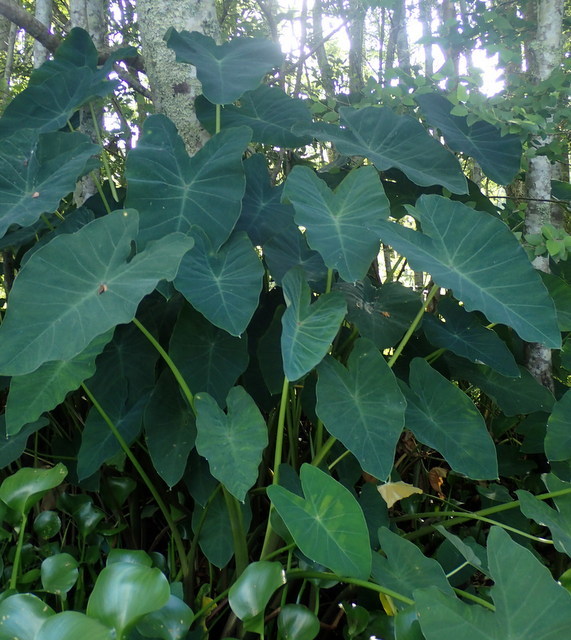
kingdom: Plantae
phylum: Tracheophyta
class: Liliopsida
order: Alismatales
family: Araceae
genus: Colocasia
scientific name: Colocasia esculenta
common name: Taro
